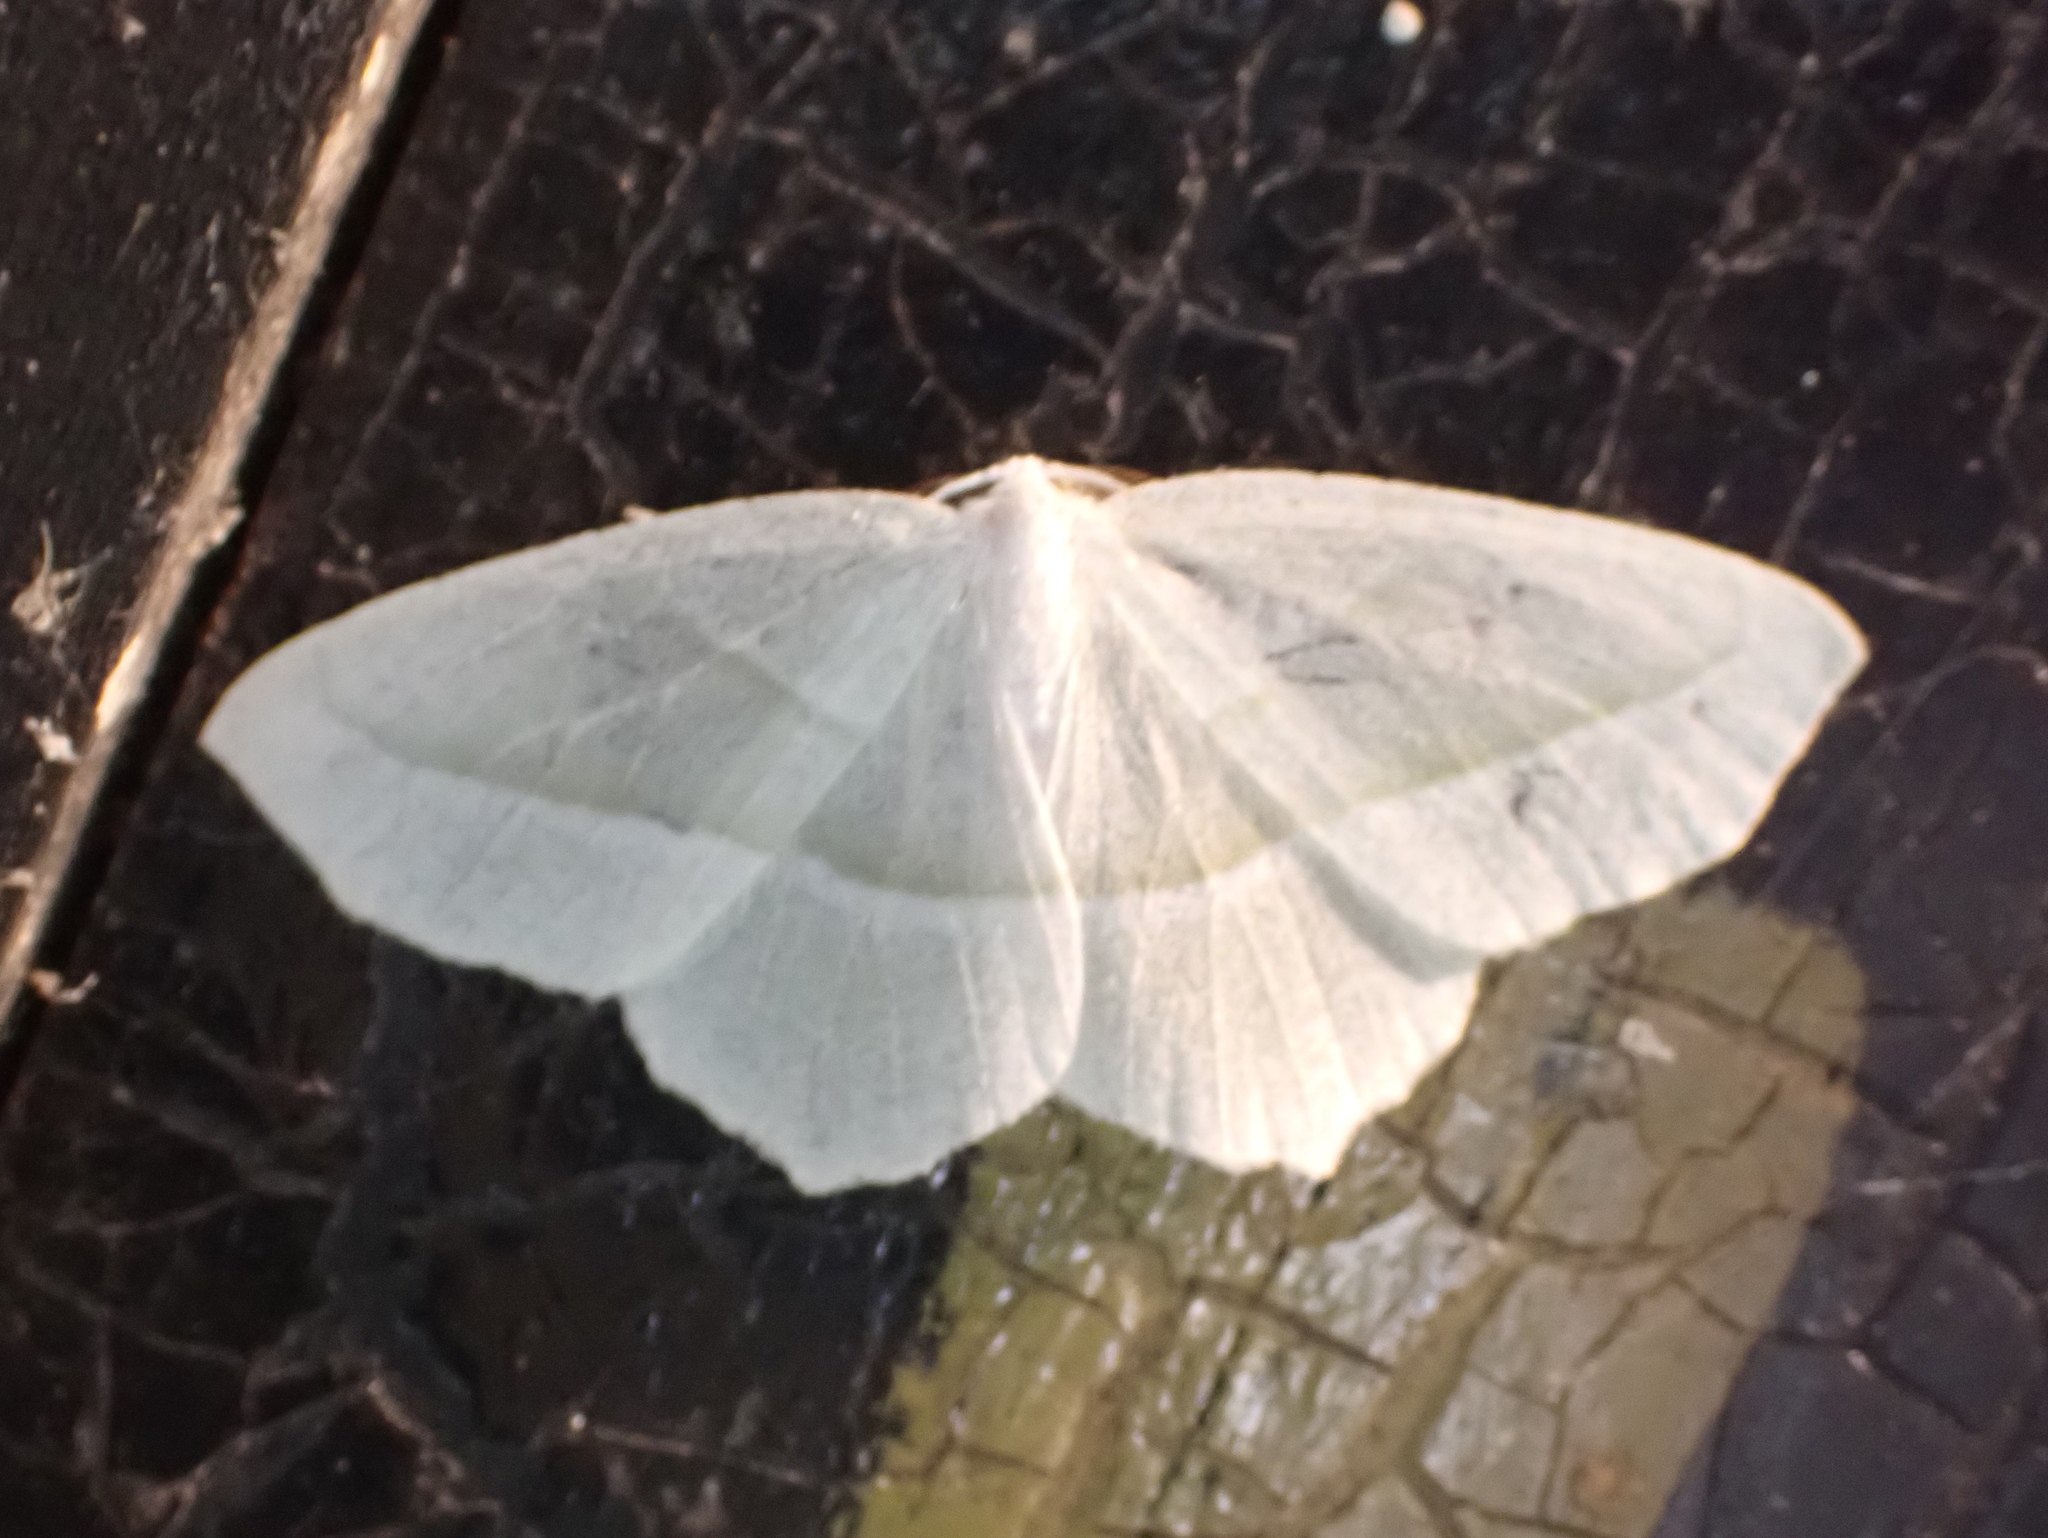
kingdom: Animalia
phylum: Arthropoda
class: Insecta
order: Lepidoptera
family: Geometridae
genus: Campaea
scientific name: Campaea perlata
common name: Fringed looper
